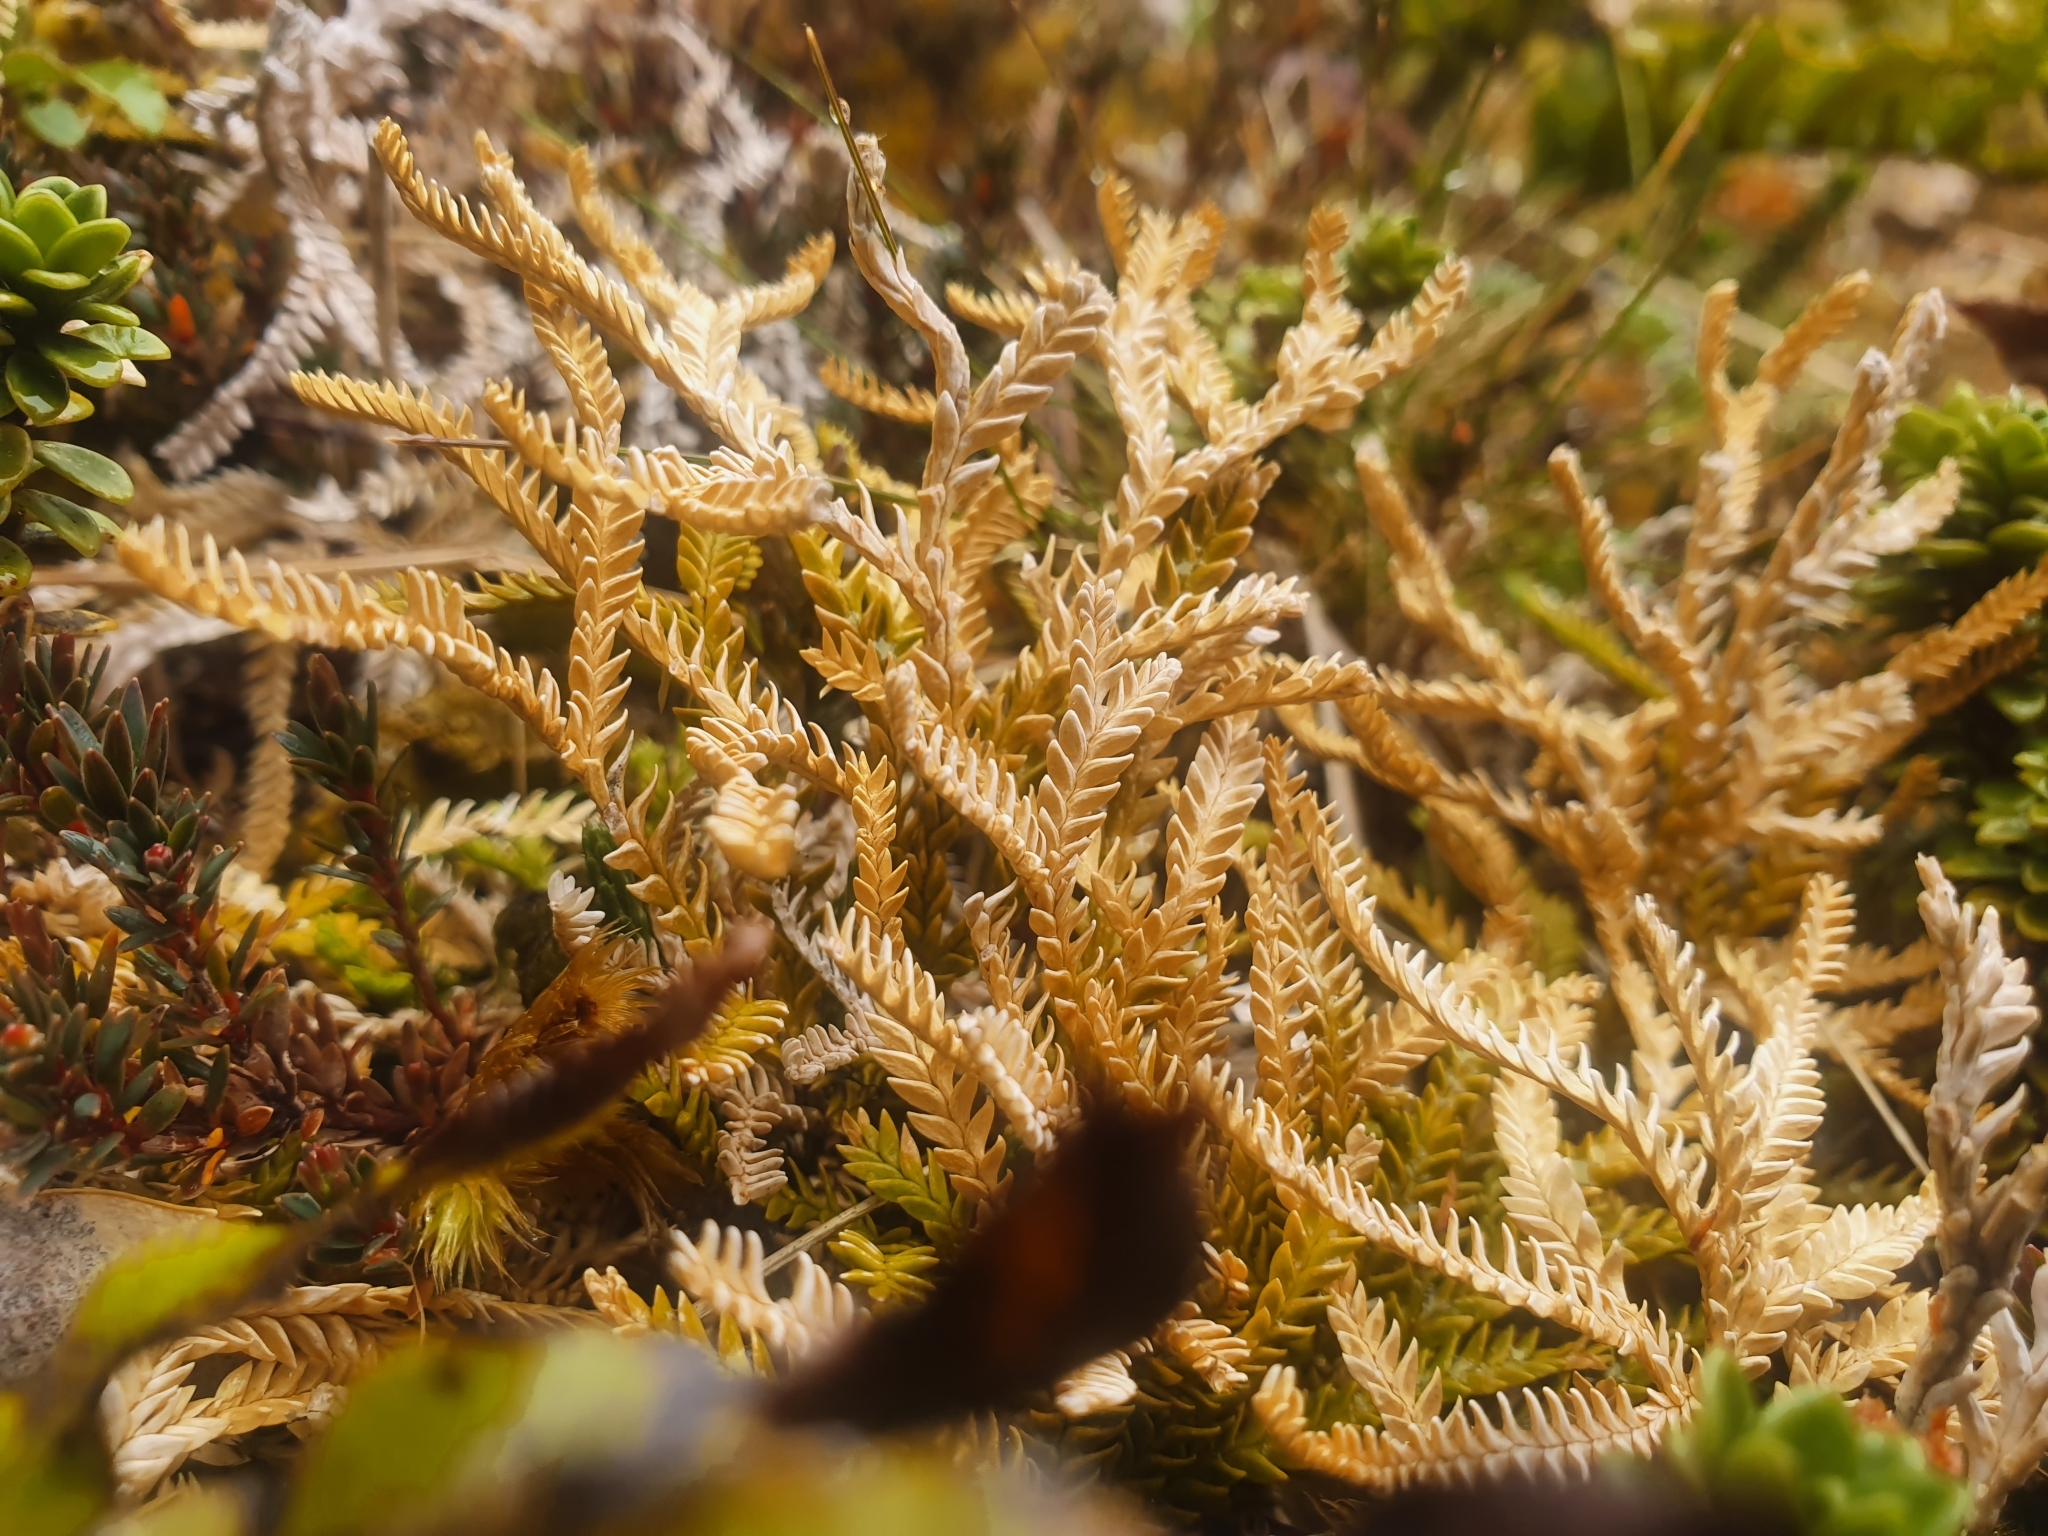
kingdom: Plantae
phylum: Tracheophyta
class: Lycopodiopsida
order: Lycopodiales
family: Lycopodiaceae
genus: Diphasium
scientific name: Diphasium scariosum
